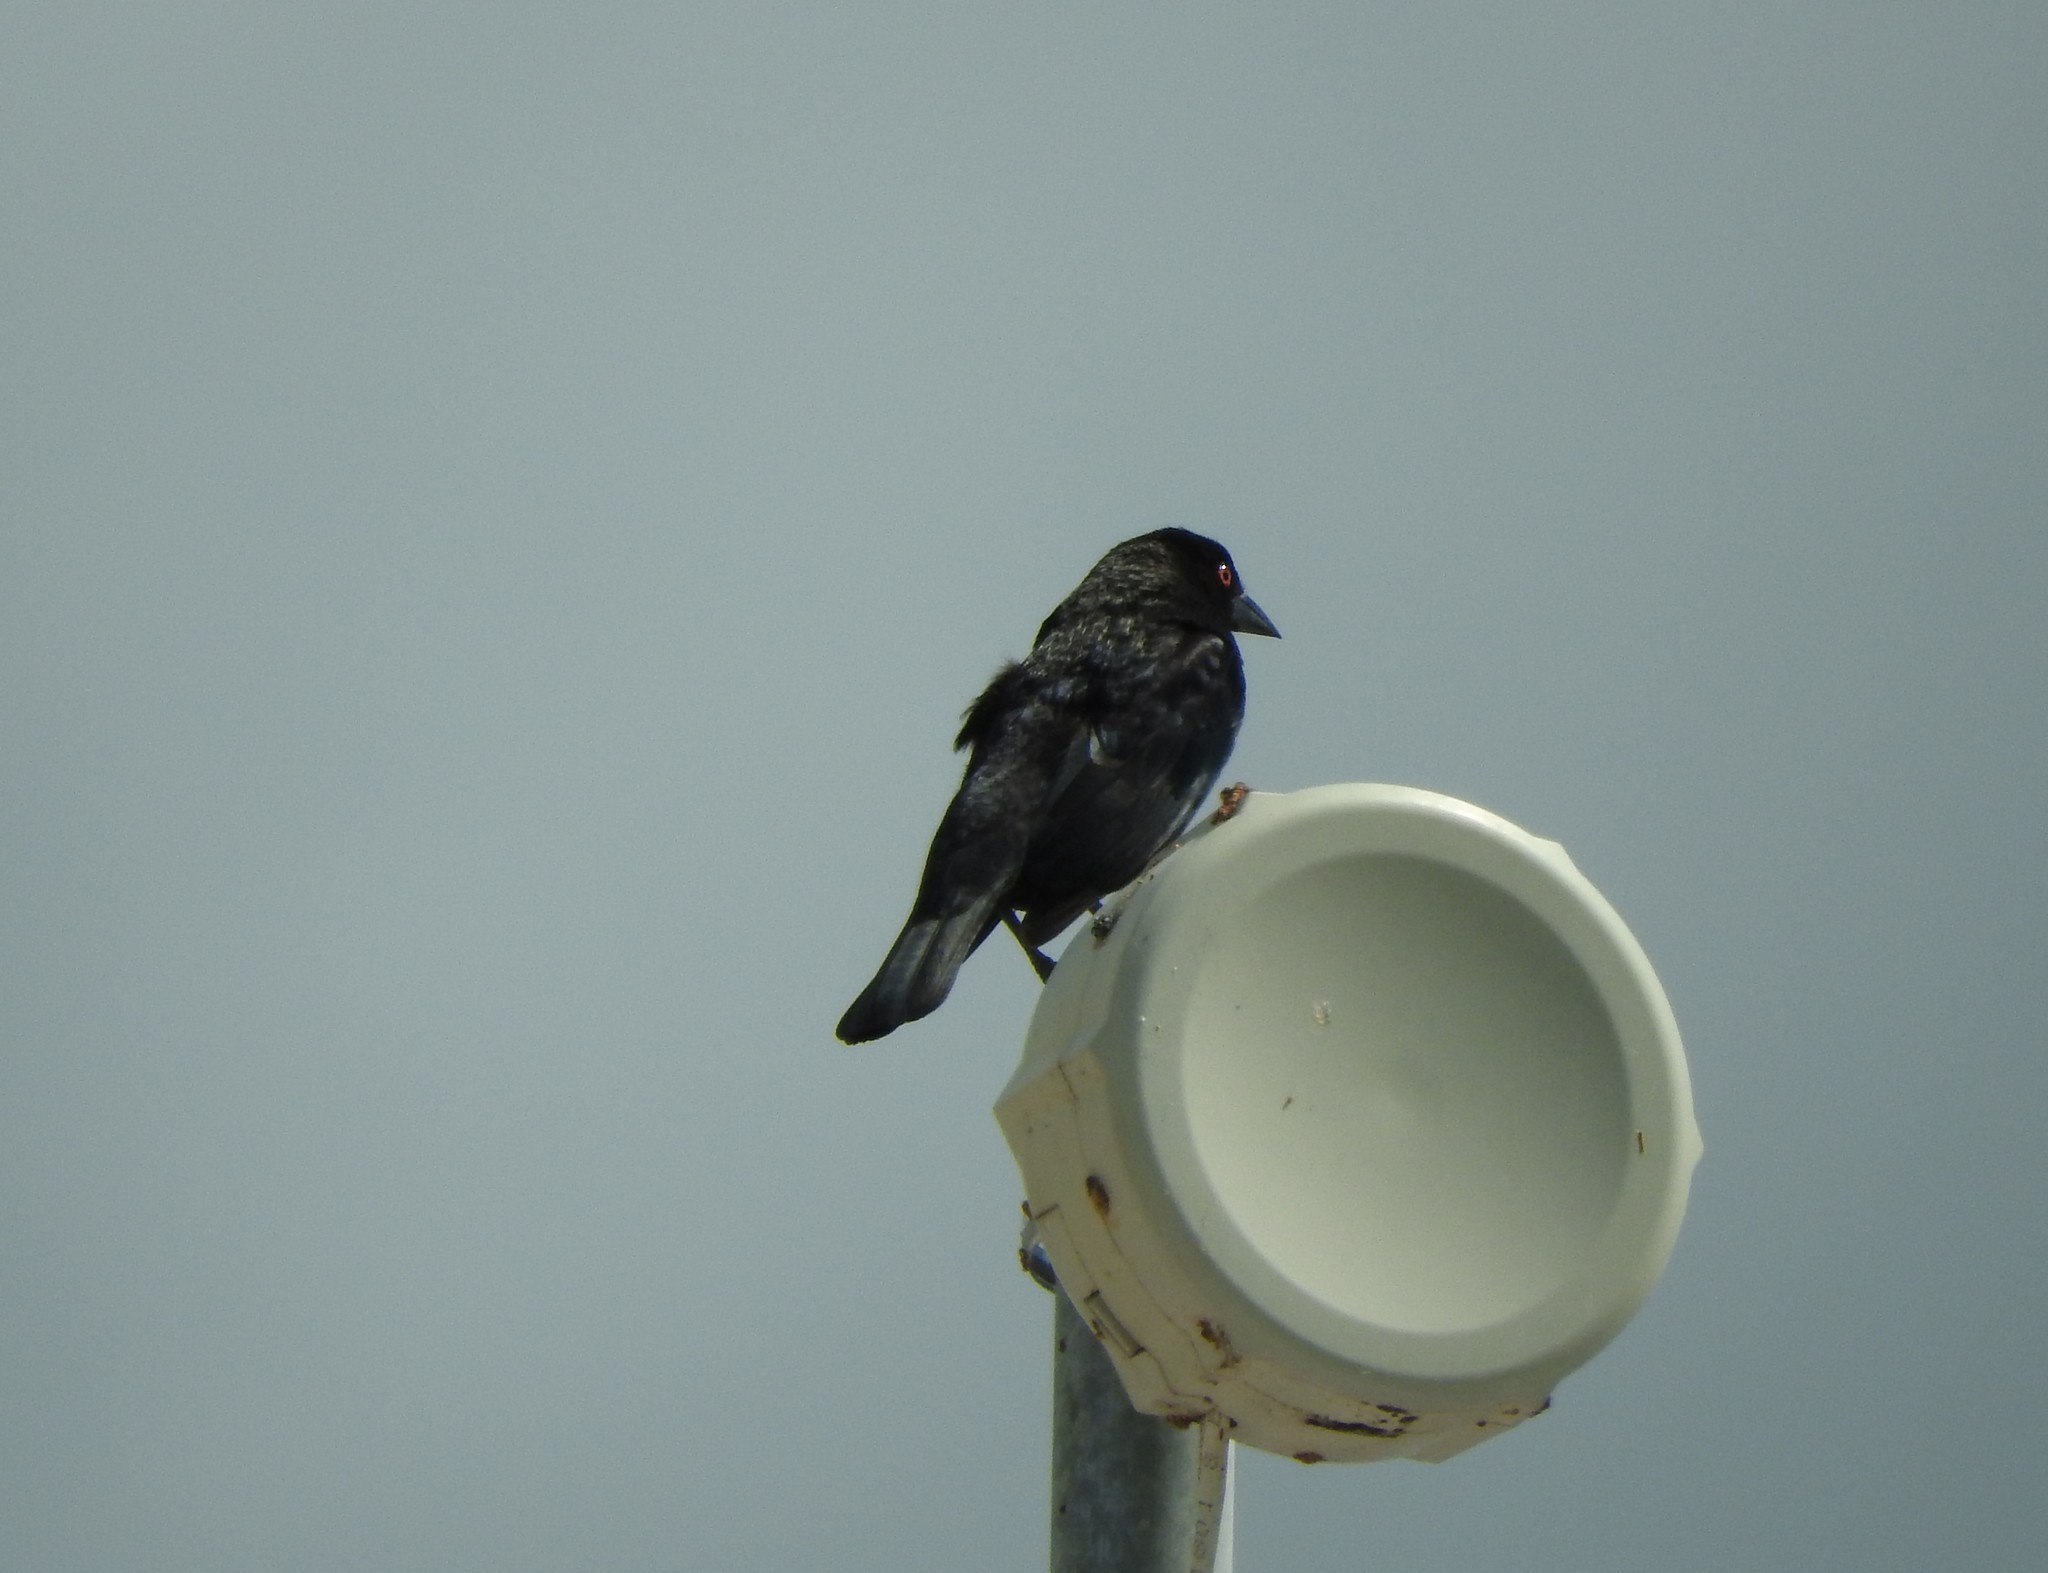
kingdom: Animalia
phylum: Chordata
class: Aves
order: Passeriformes
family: Icteridae
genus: Molothrus
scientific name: Molothrus aeneus
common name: Bronzed cowbird
